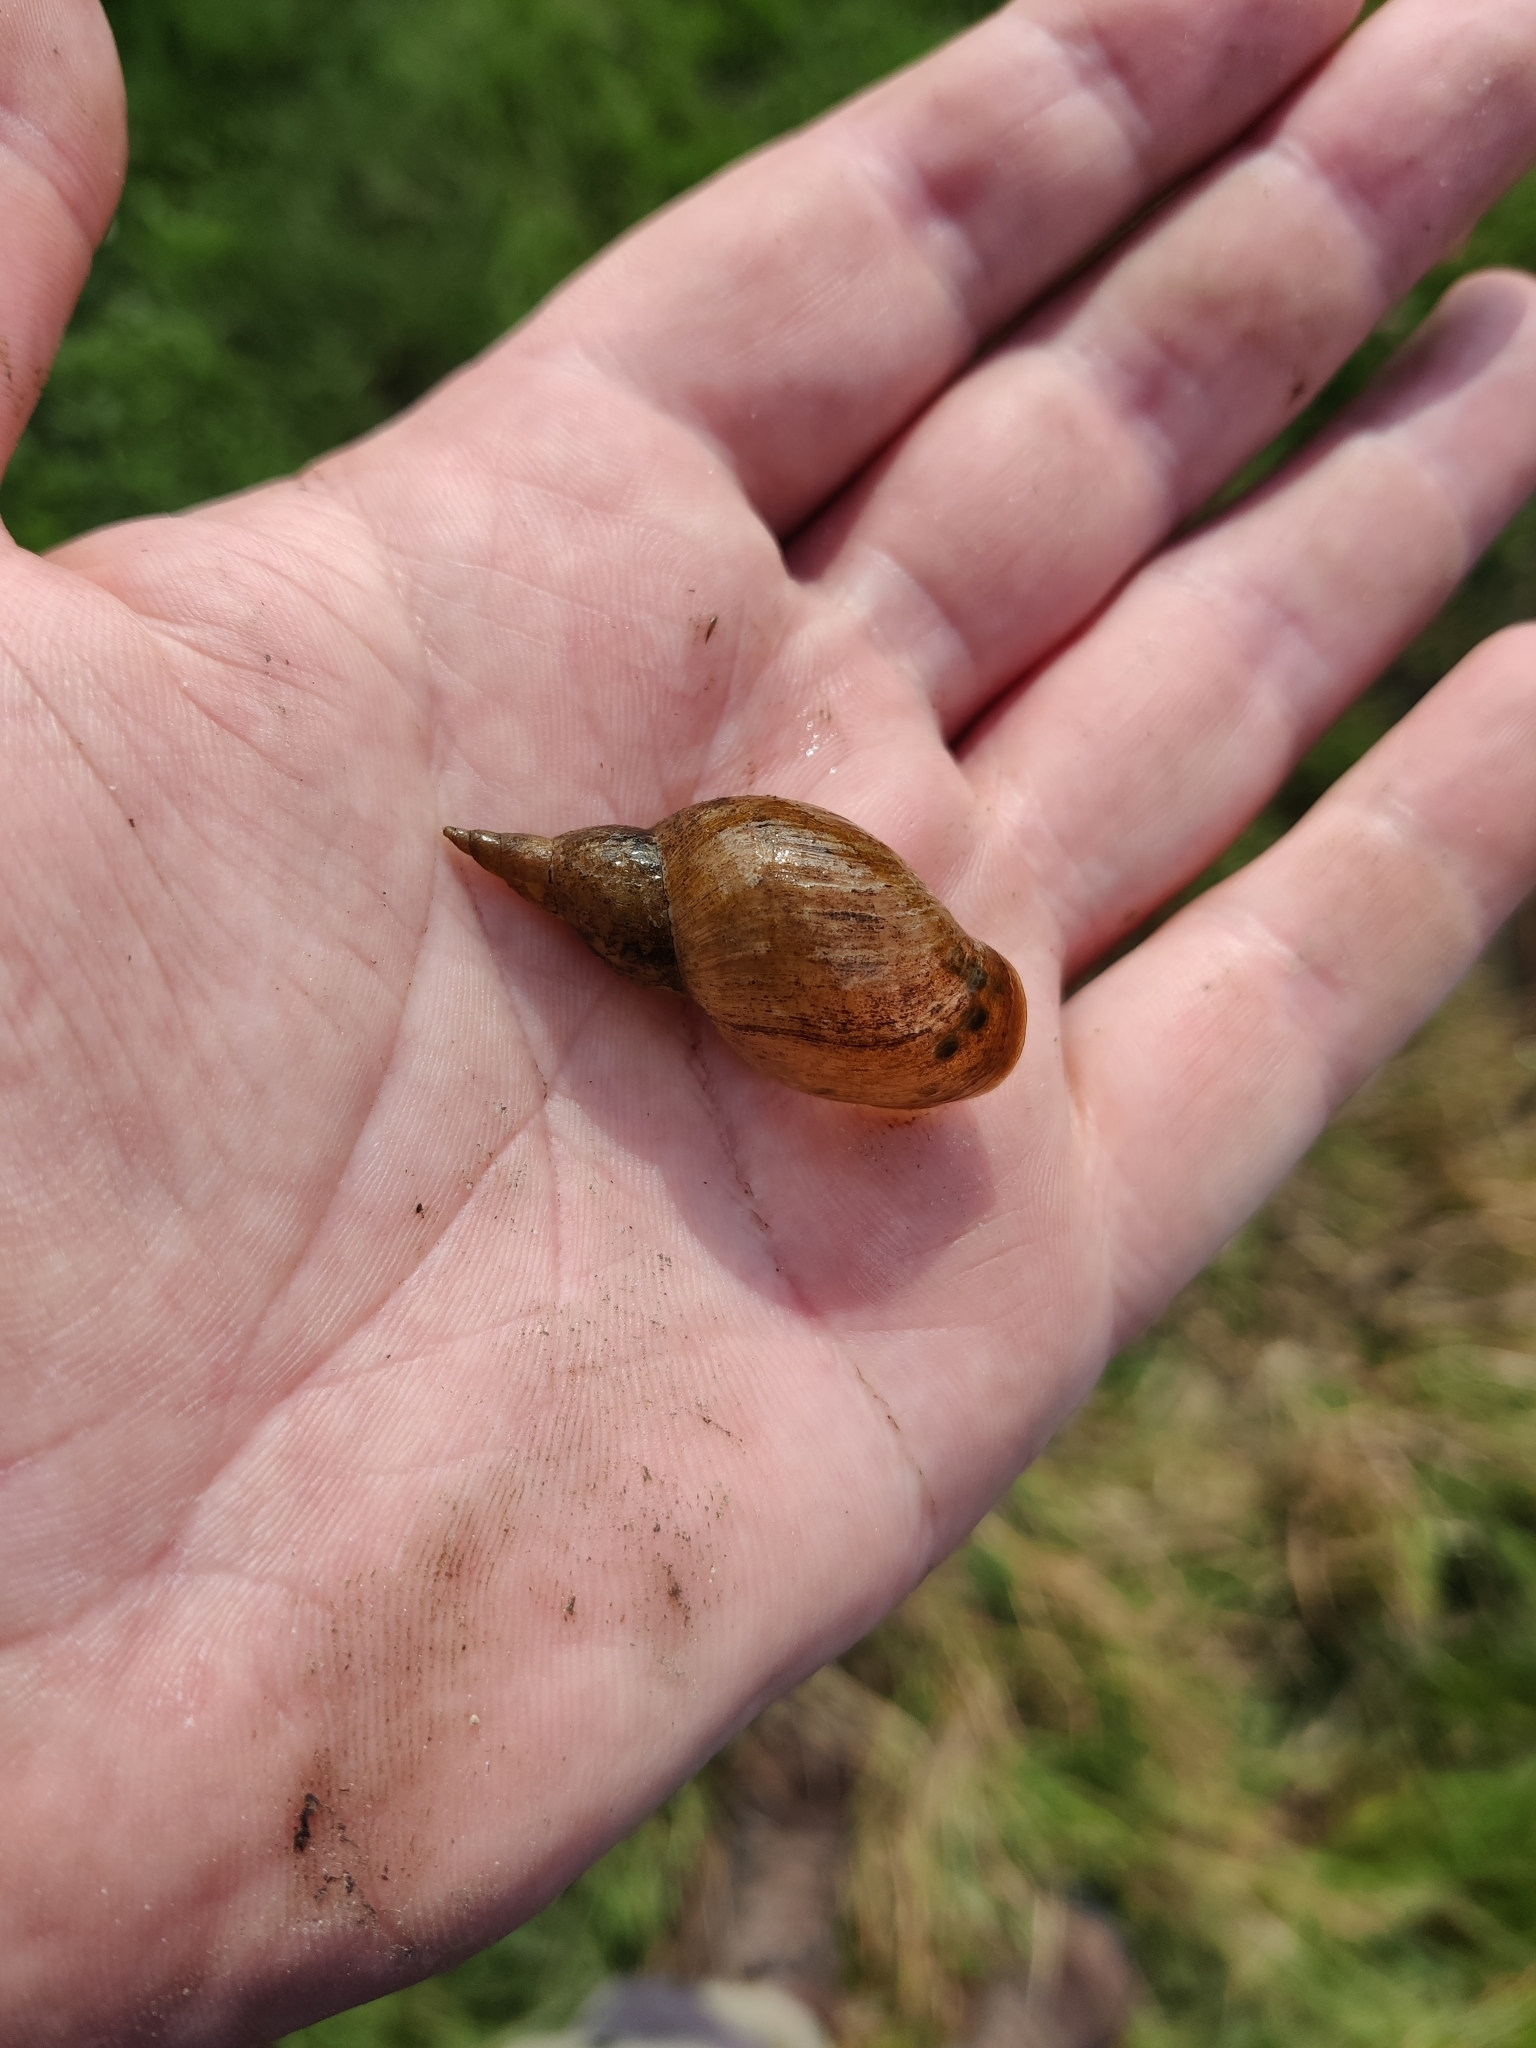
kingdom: Animalia
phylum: Mollusca
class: Gastropoda
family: Lymnaeidae
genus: Lymnaea
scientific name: Lymnaea stagnalis
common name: Great pond snail
